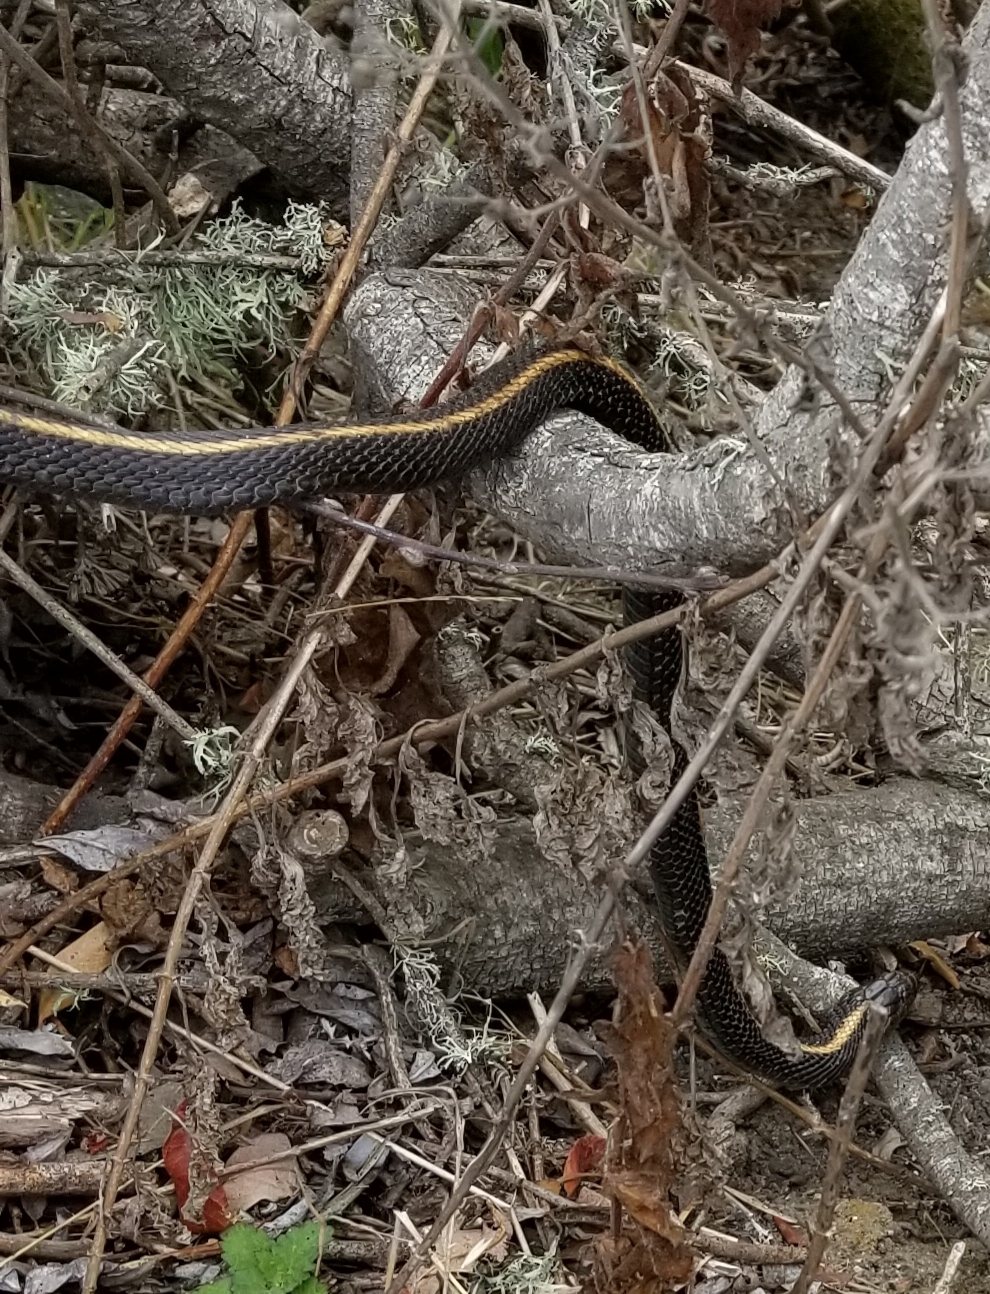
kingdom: Animalia
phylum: Chordata
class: Squamata
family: Colubridae
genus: Thamnophis
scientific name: Thamnophis atratus
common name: Pacific coast aquatic garter snake
